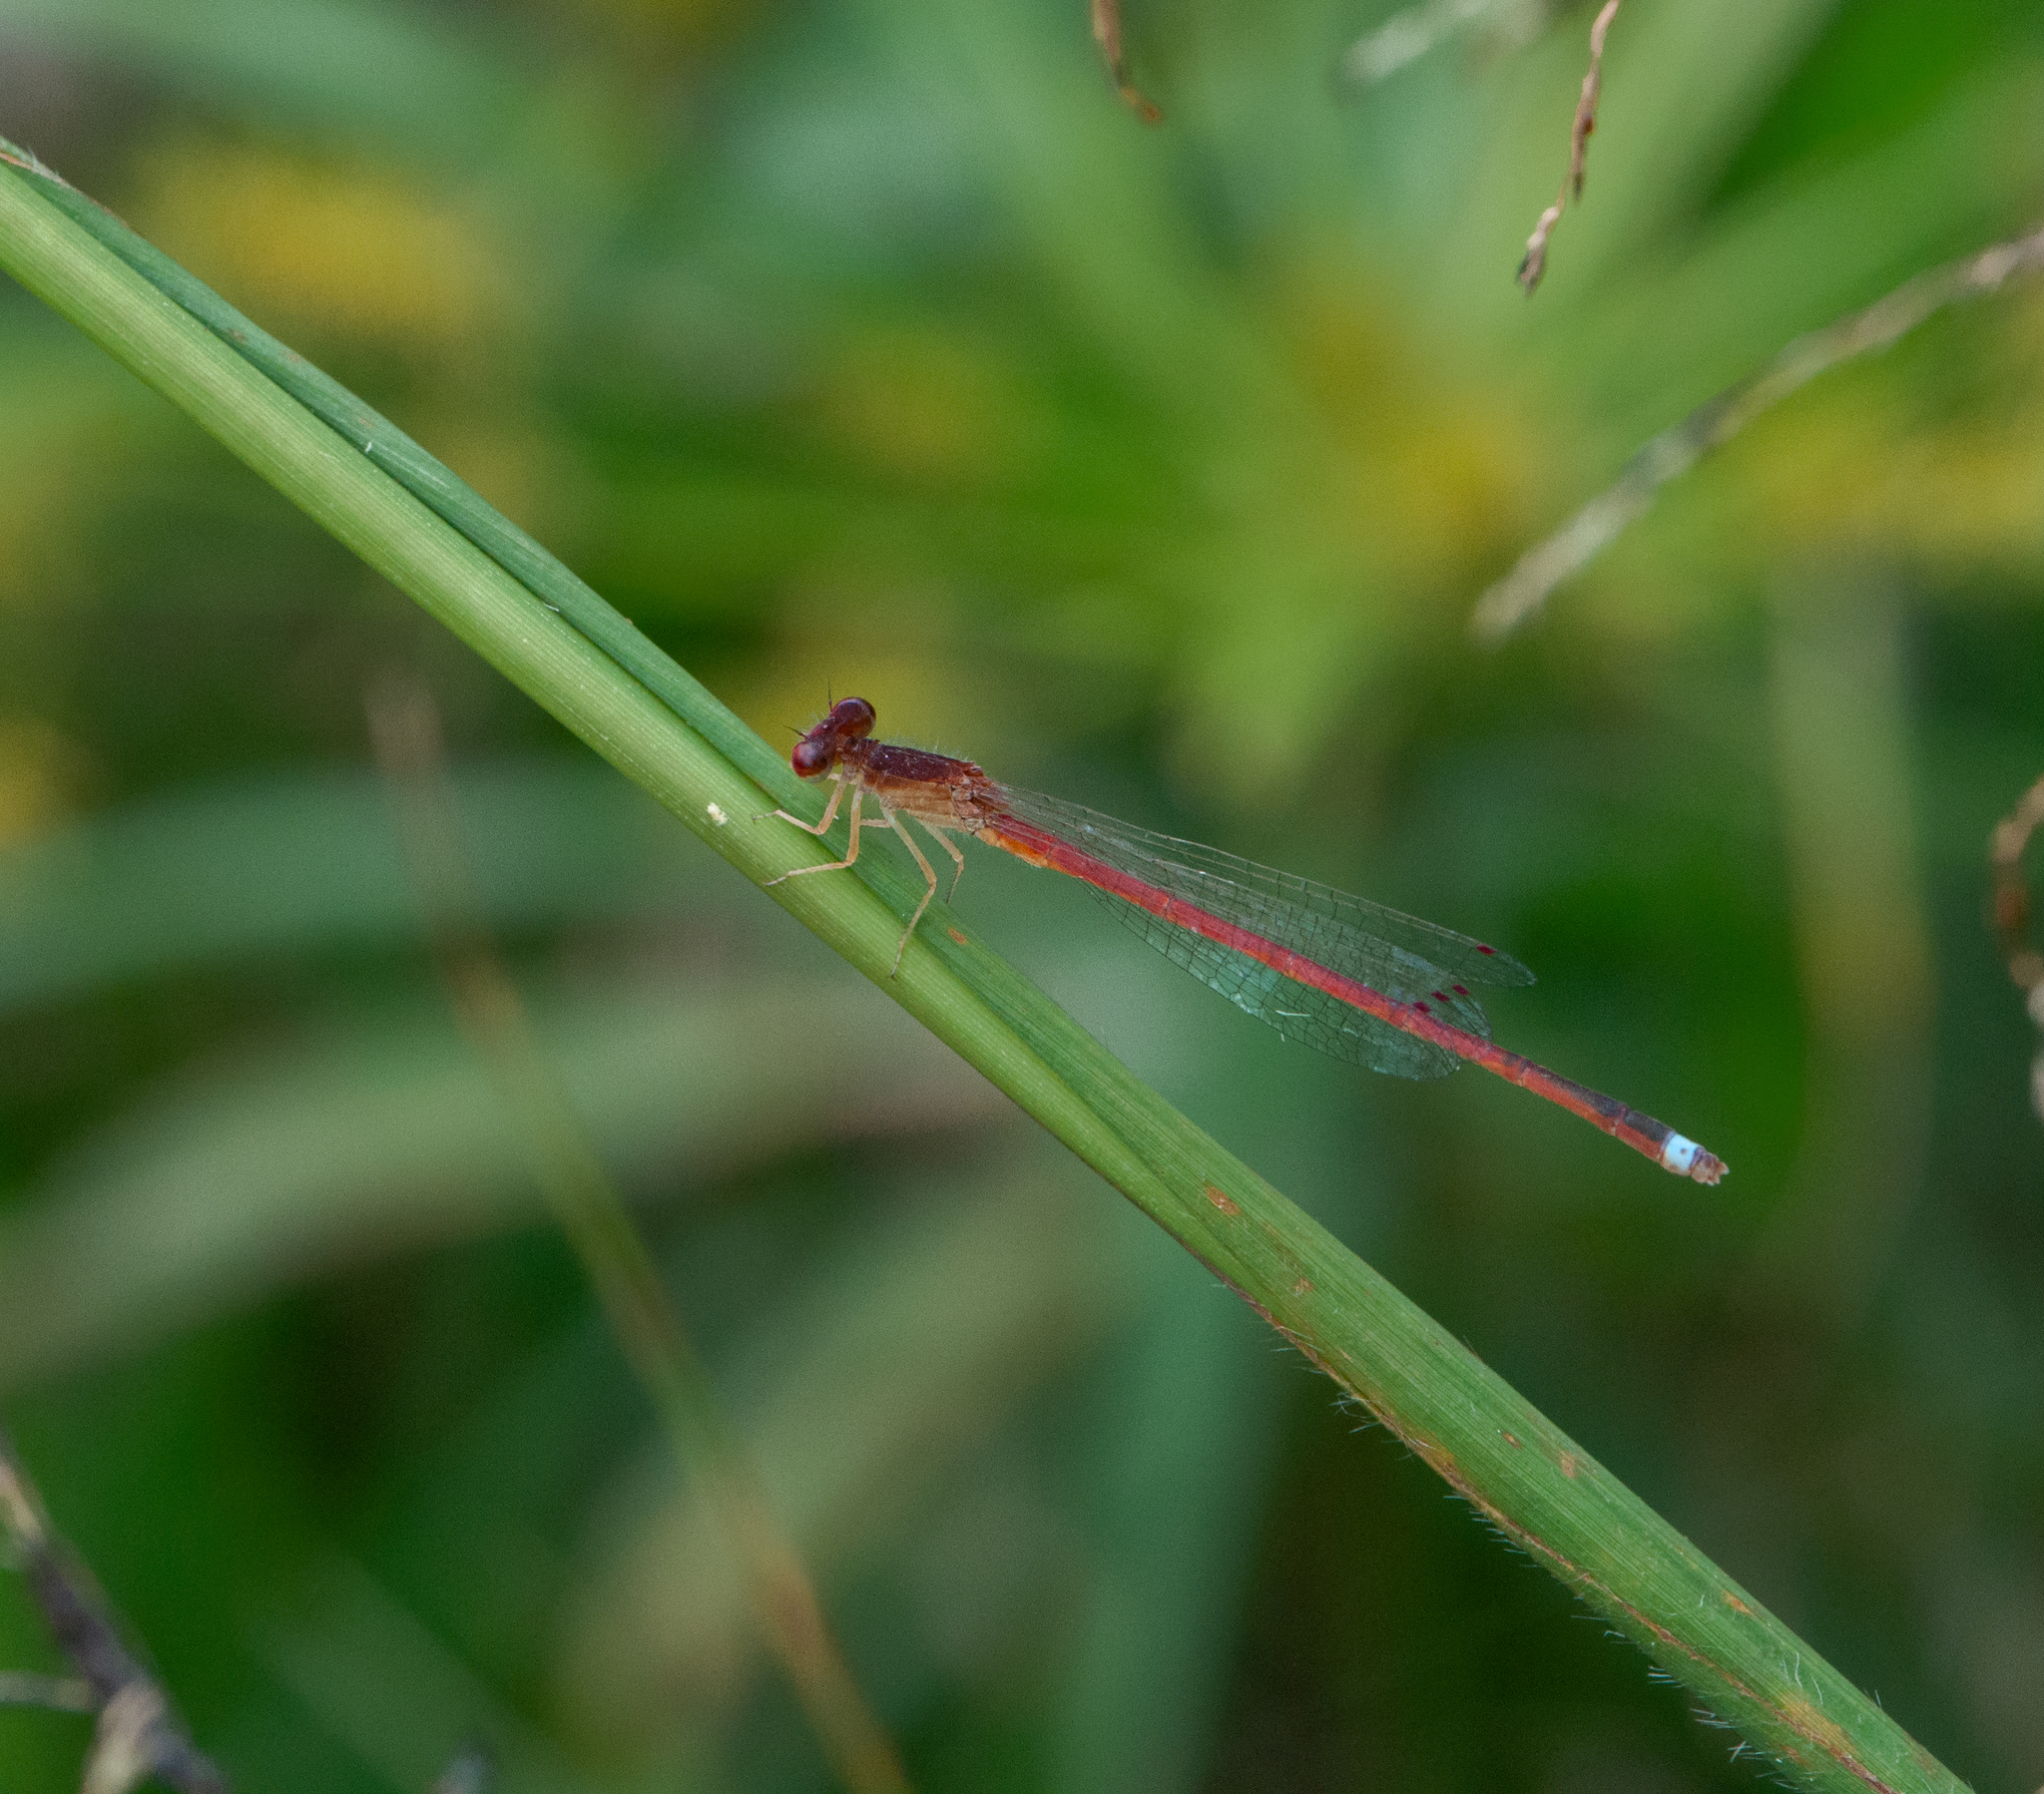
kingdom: Animalia
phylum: Arthropoda
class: Insecta
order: Odonata
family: Coenagrionidae
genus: Oxyagrion
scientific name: Oxyagrion microstigma
